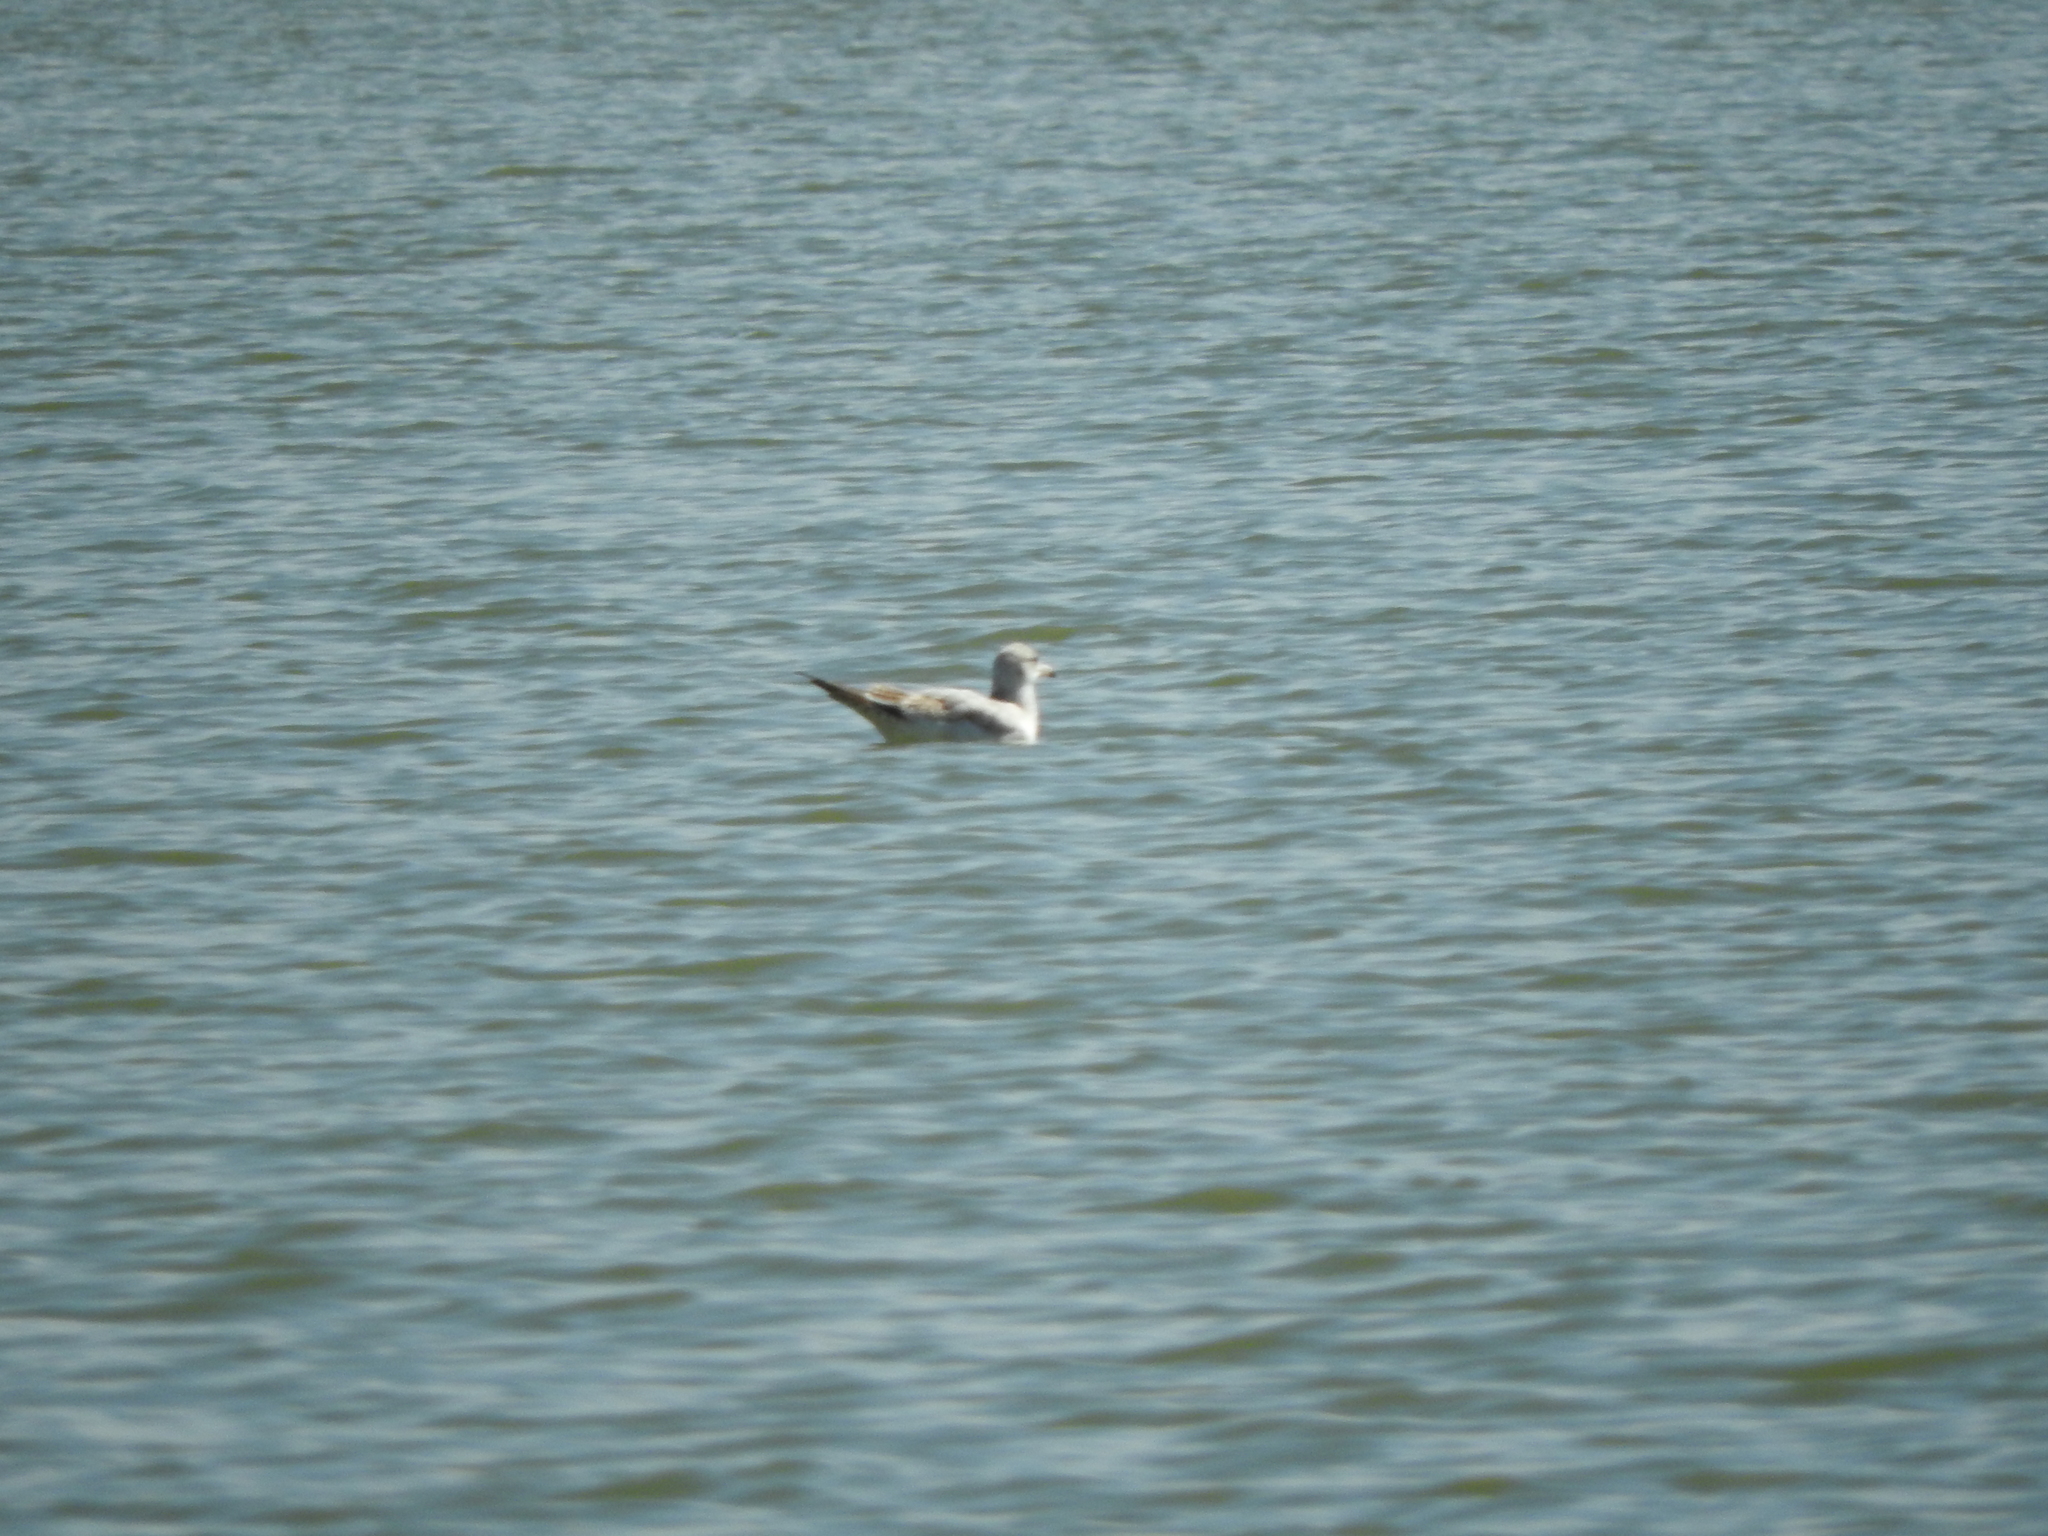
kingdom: Animalia
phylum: Chordata
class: Aves
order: Charadriiformes
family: Laridae
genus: Larus
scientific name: Larus delawarensis
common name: Ring-billed gull
